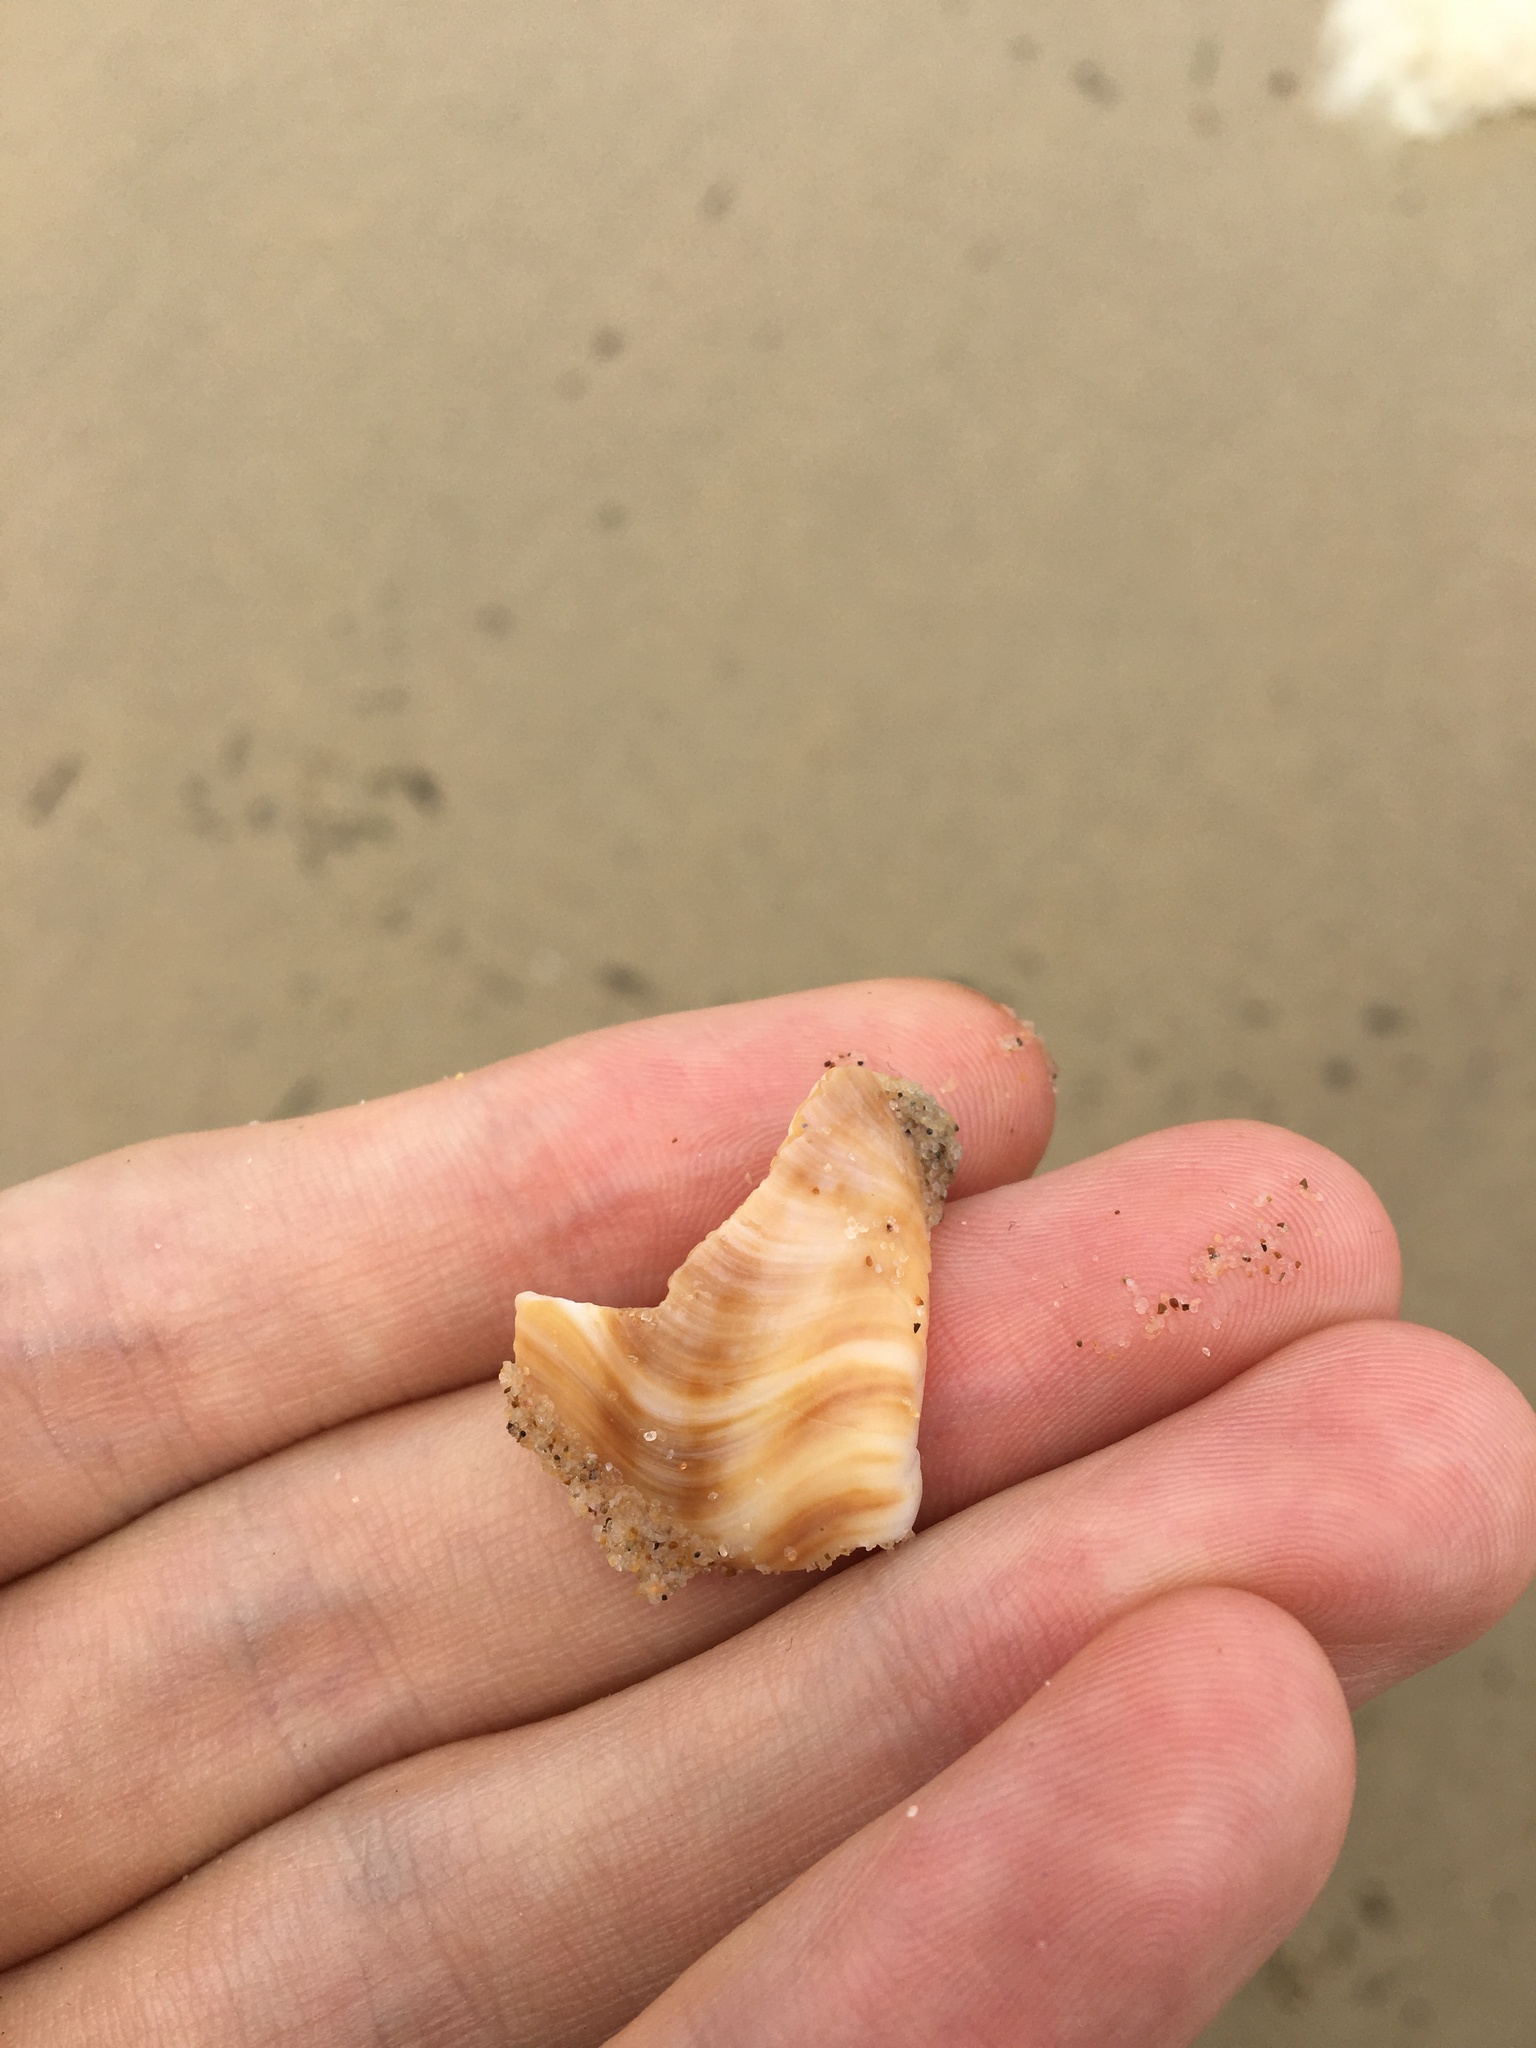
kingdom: Animalia
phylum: Mollusca
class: Gastropoda
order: Littorinimorpha
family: Struthiolariidae
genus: Tylospira
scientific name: Tylospira scutulata
